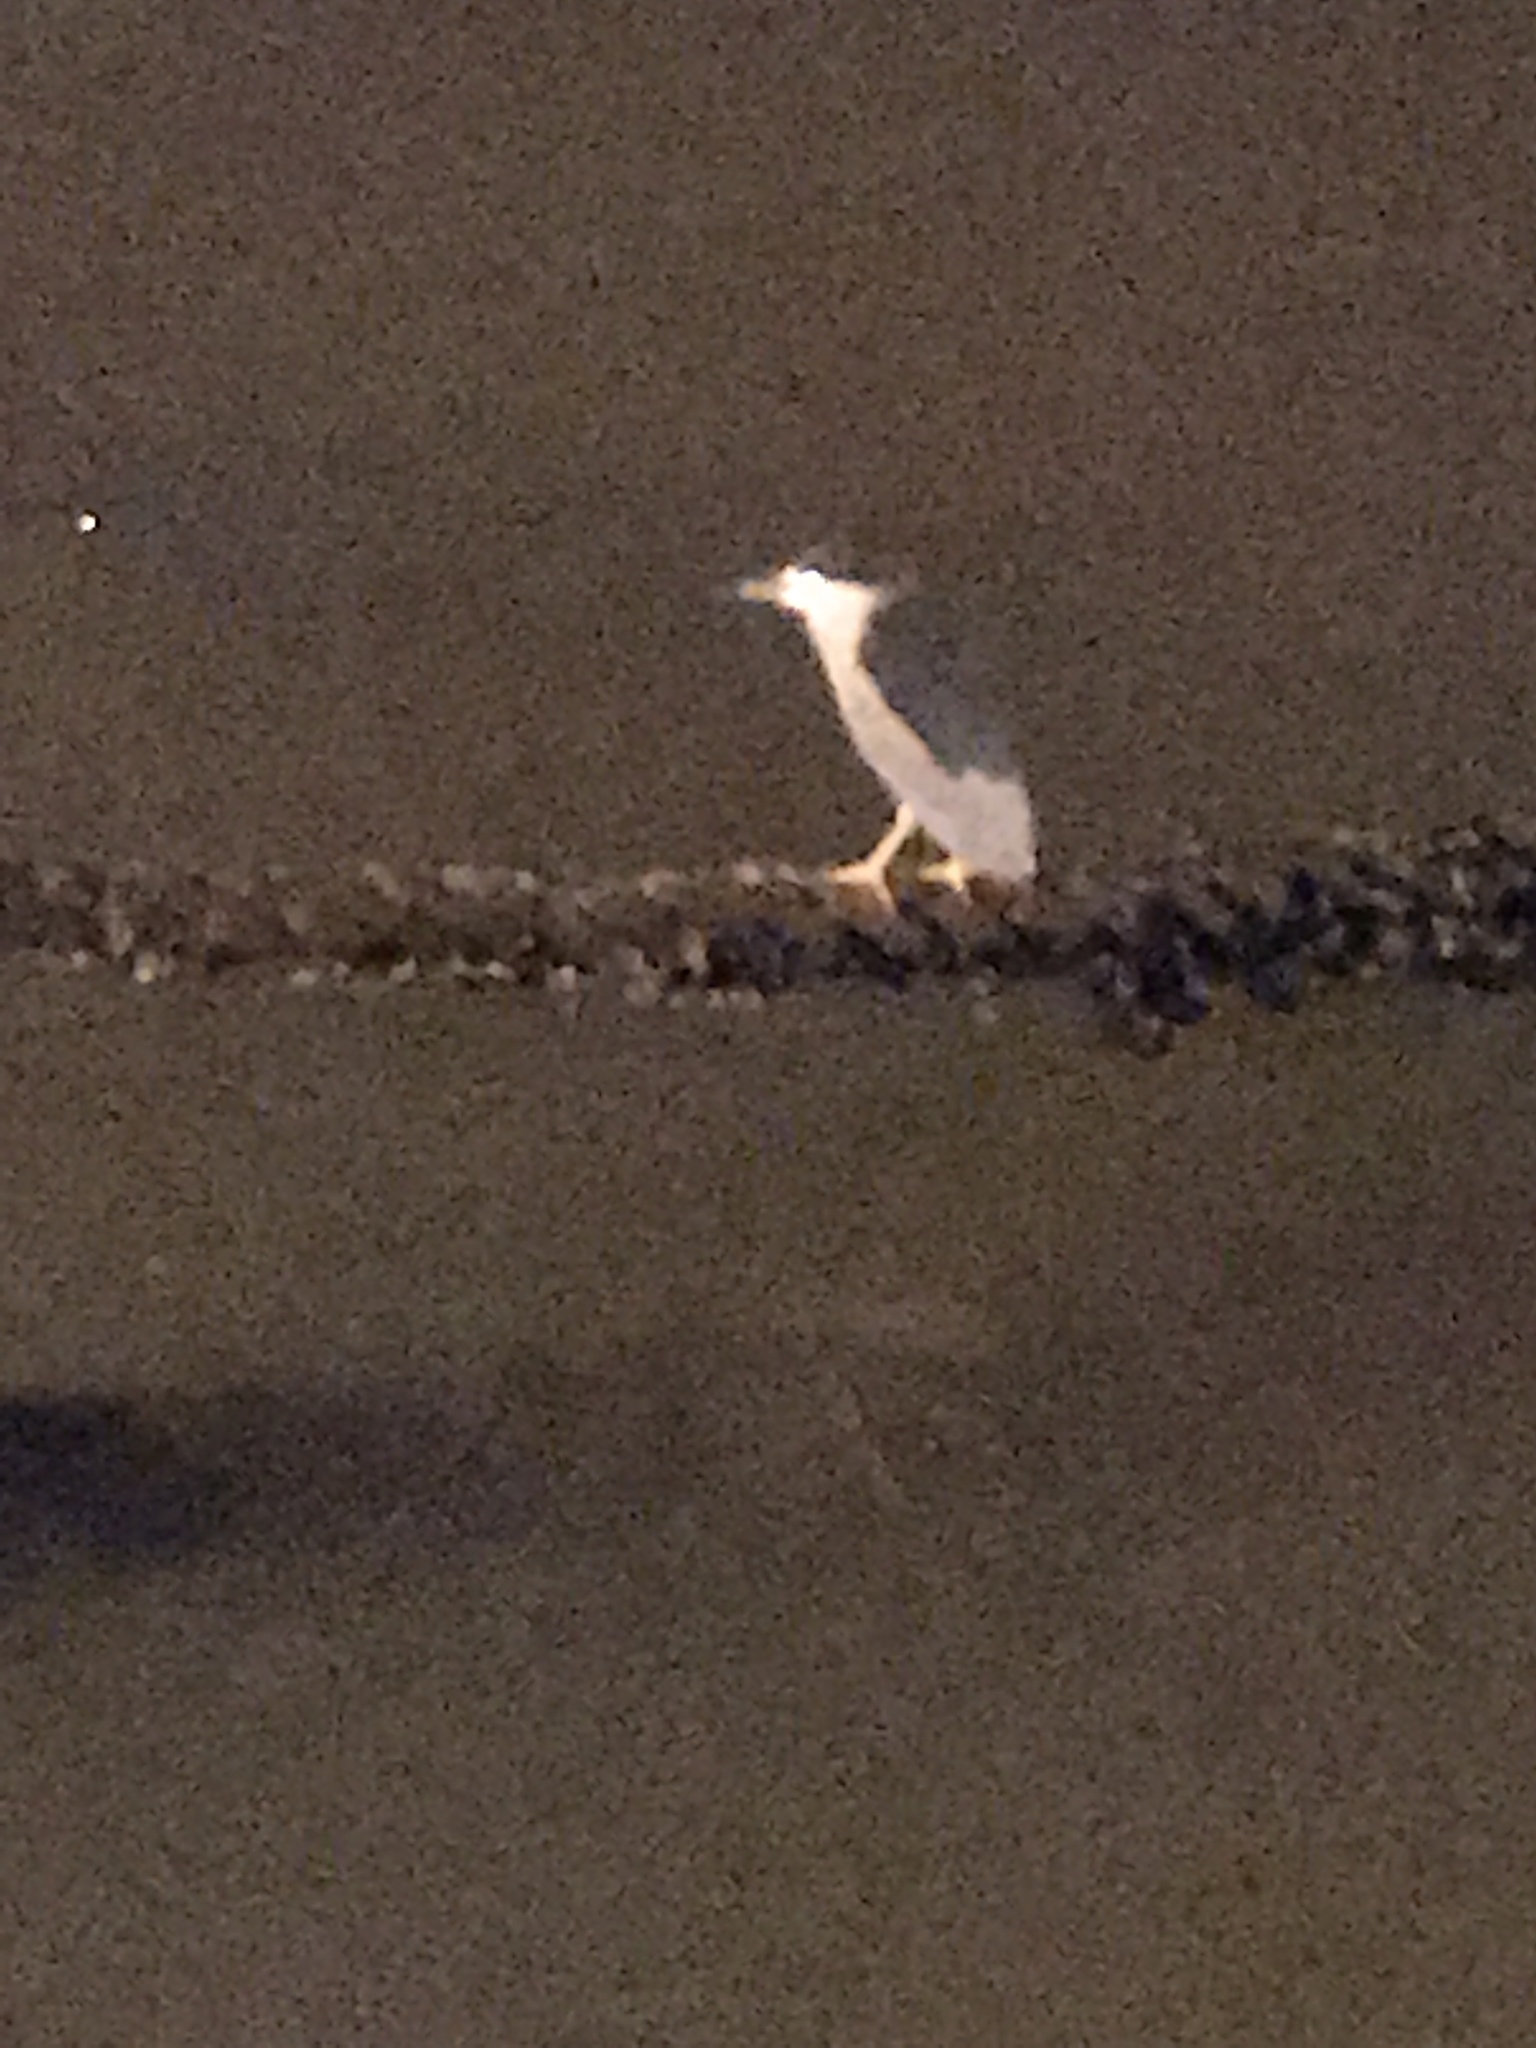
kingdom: Animalia
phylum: Chordata
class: Aves
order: Pelecaniformes
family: Ardeidae
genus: Nycticorax
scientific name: Nycticorax nycticorax
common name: Black-crowned night heron
